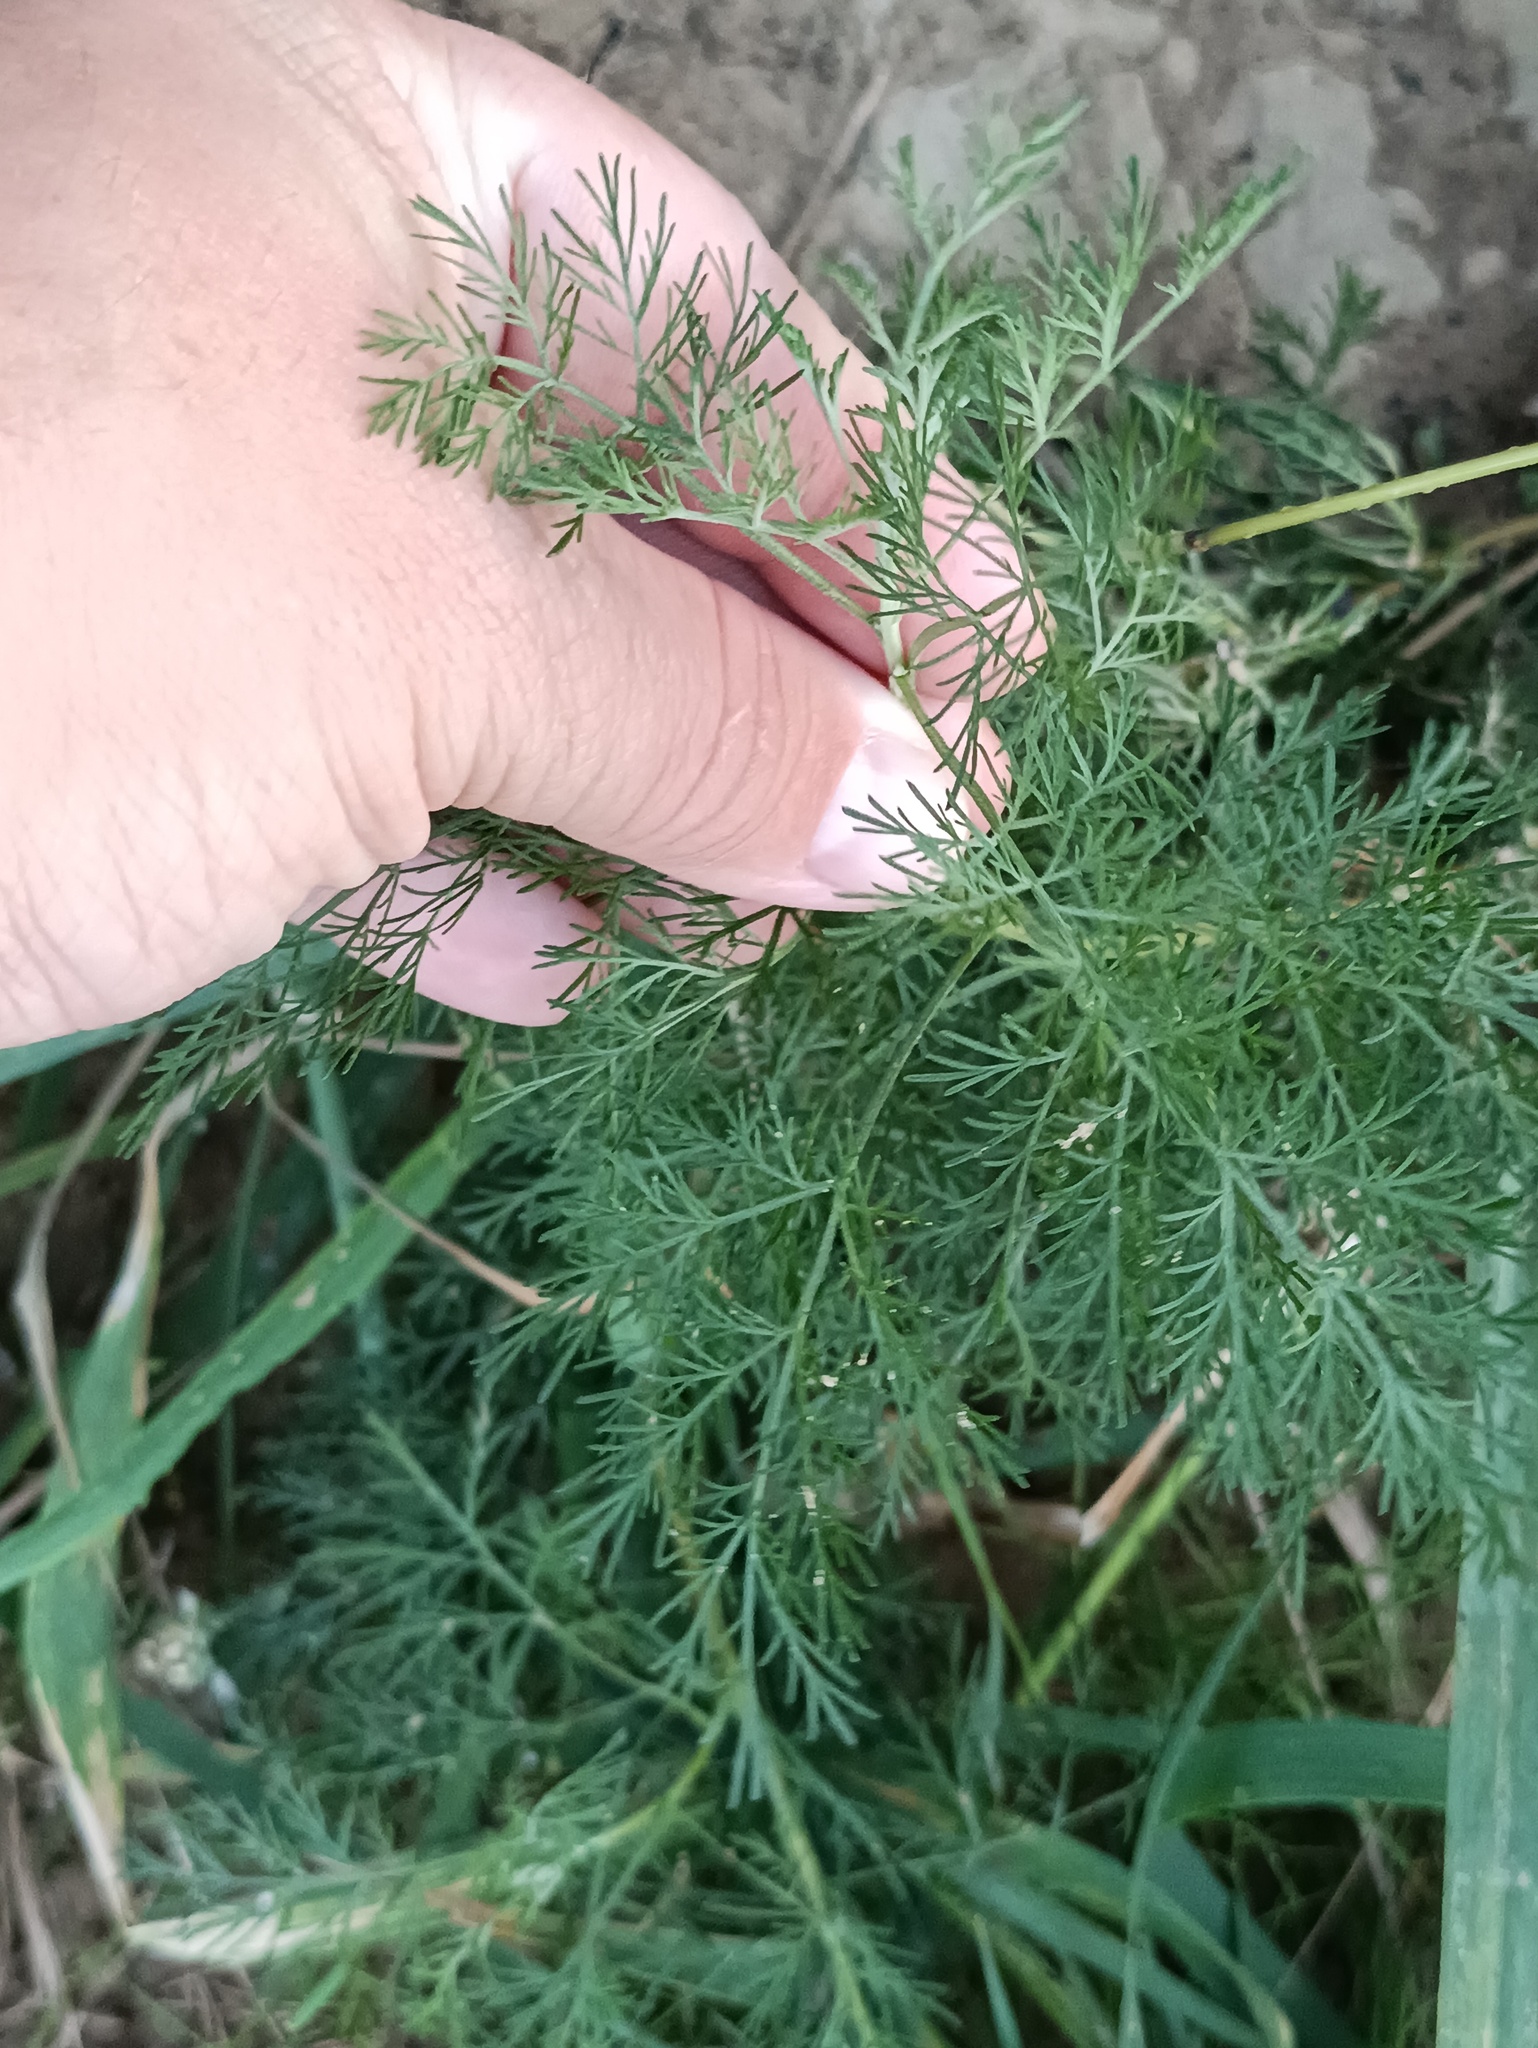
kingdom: Plantae
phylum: Tracheophyta
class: Magnoliopsida
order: Asterales
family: Asteraceae
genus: Artemisia
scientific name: Artemisia abrotanum
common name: Southernwood
